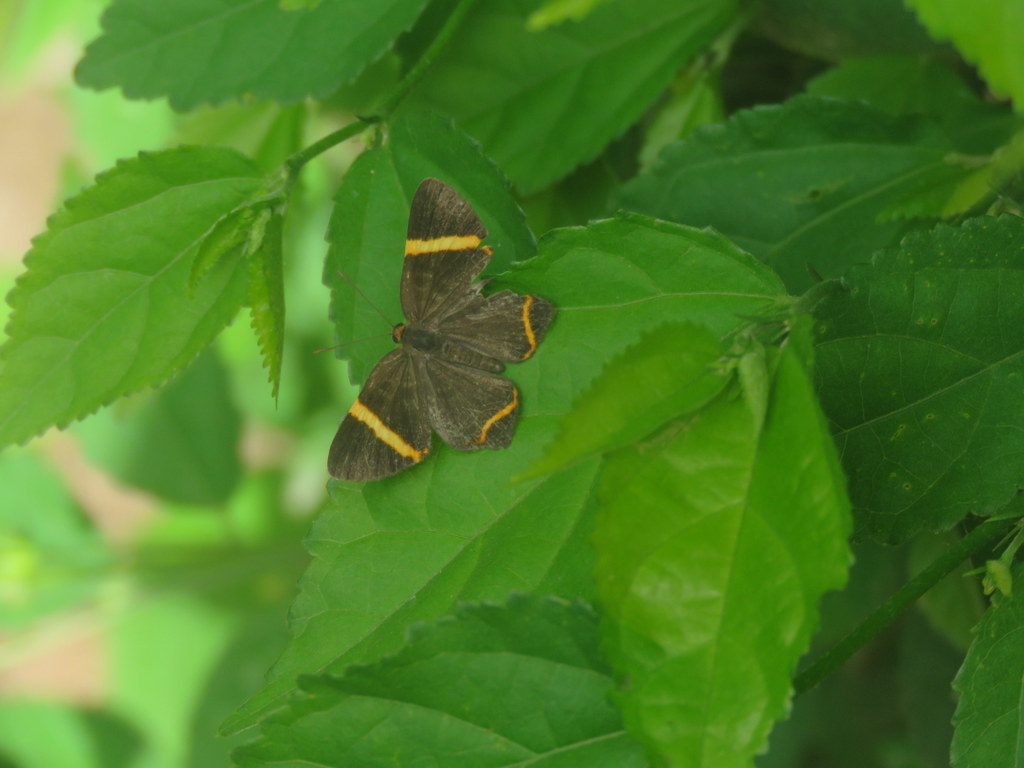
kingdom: Animalia
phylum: Arthropoda
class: Insecta
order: Lepidoptera
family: Riodinidae
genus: Riodina
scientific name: Riodina lysippoides
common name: Little dancer metalmark
